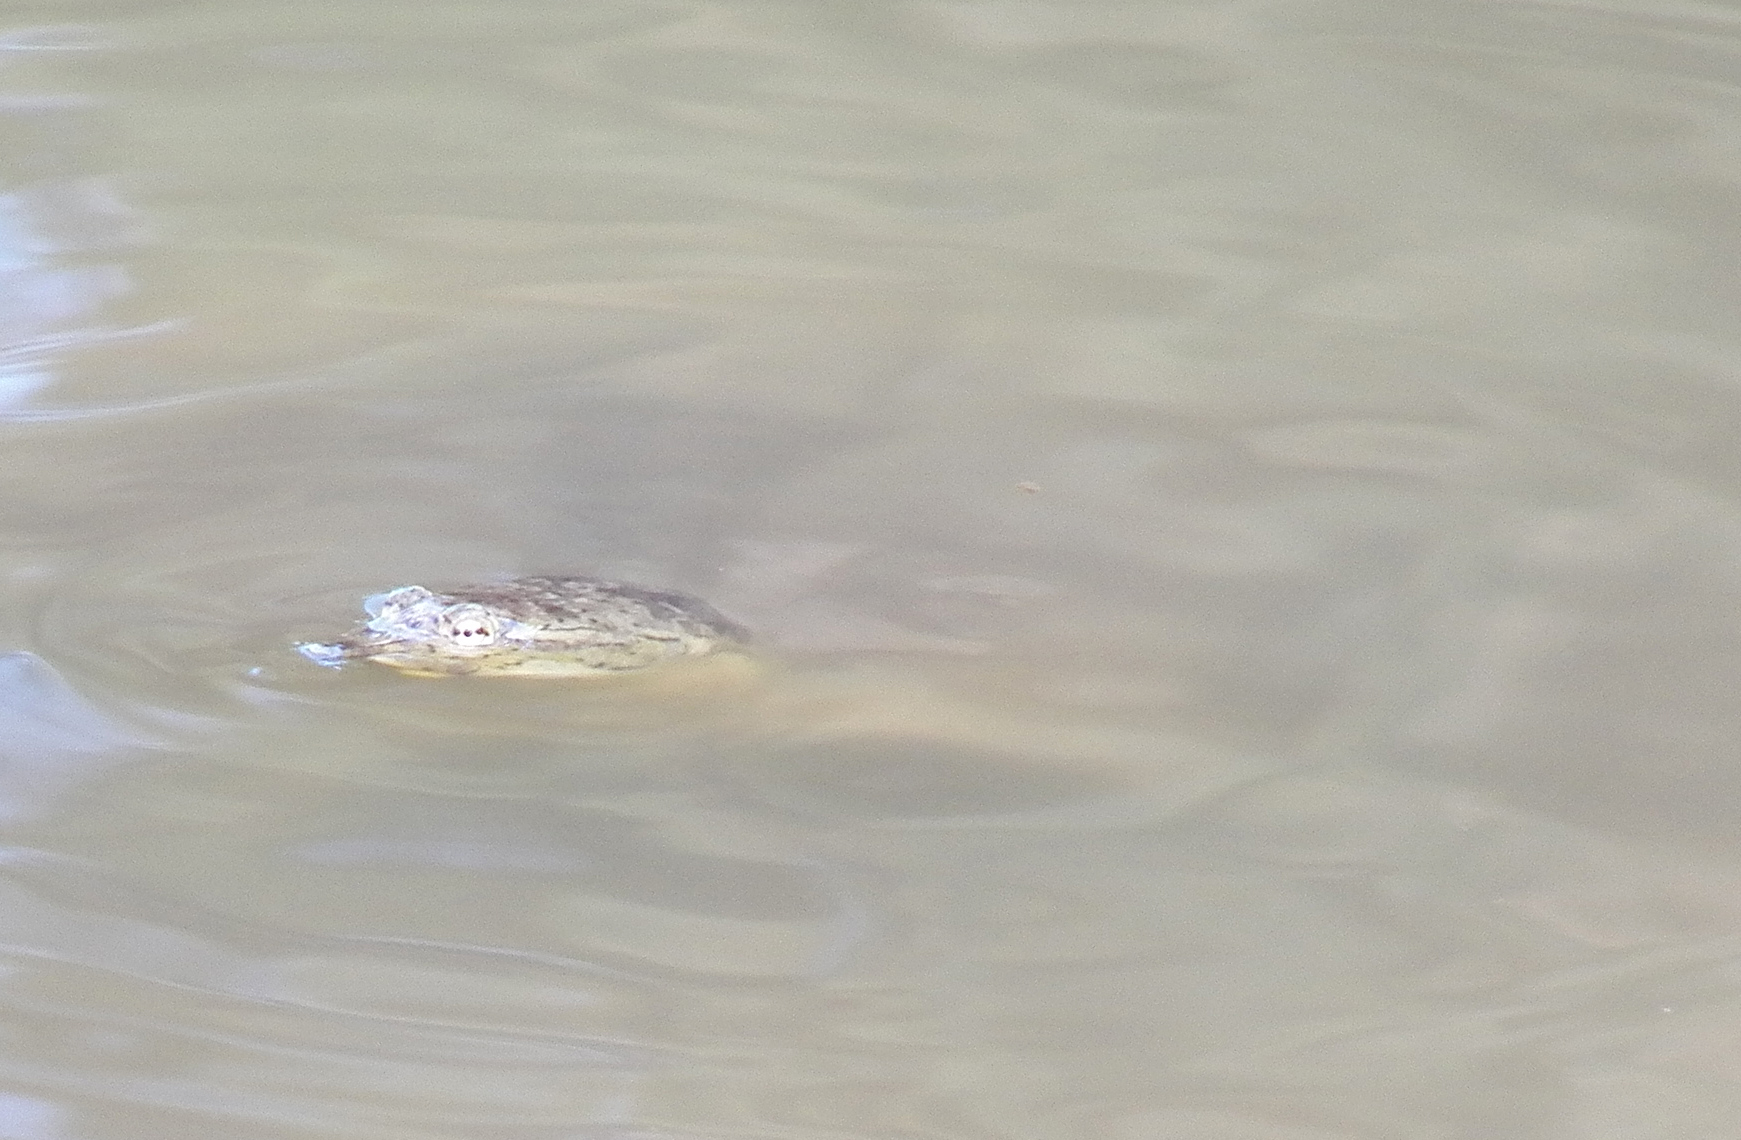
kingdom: Animalia
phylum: Chordata
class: Testudines
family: Trionychidae
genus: Apalone
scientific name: Apalone spinifera
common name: Spiny softshell turtle
